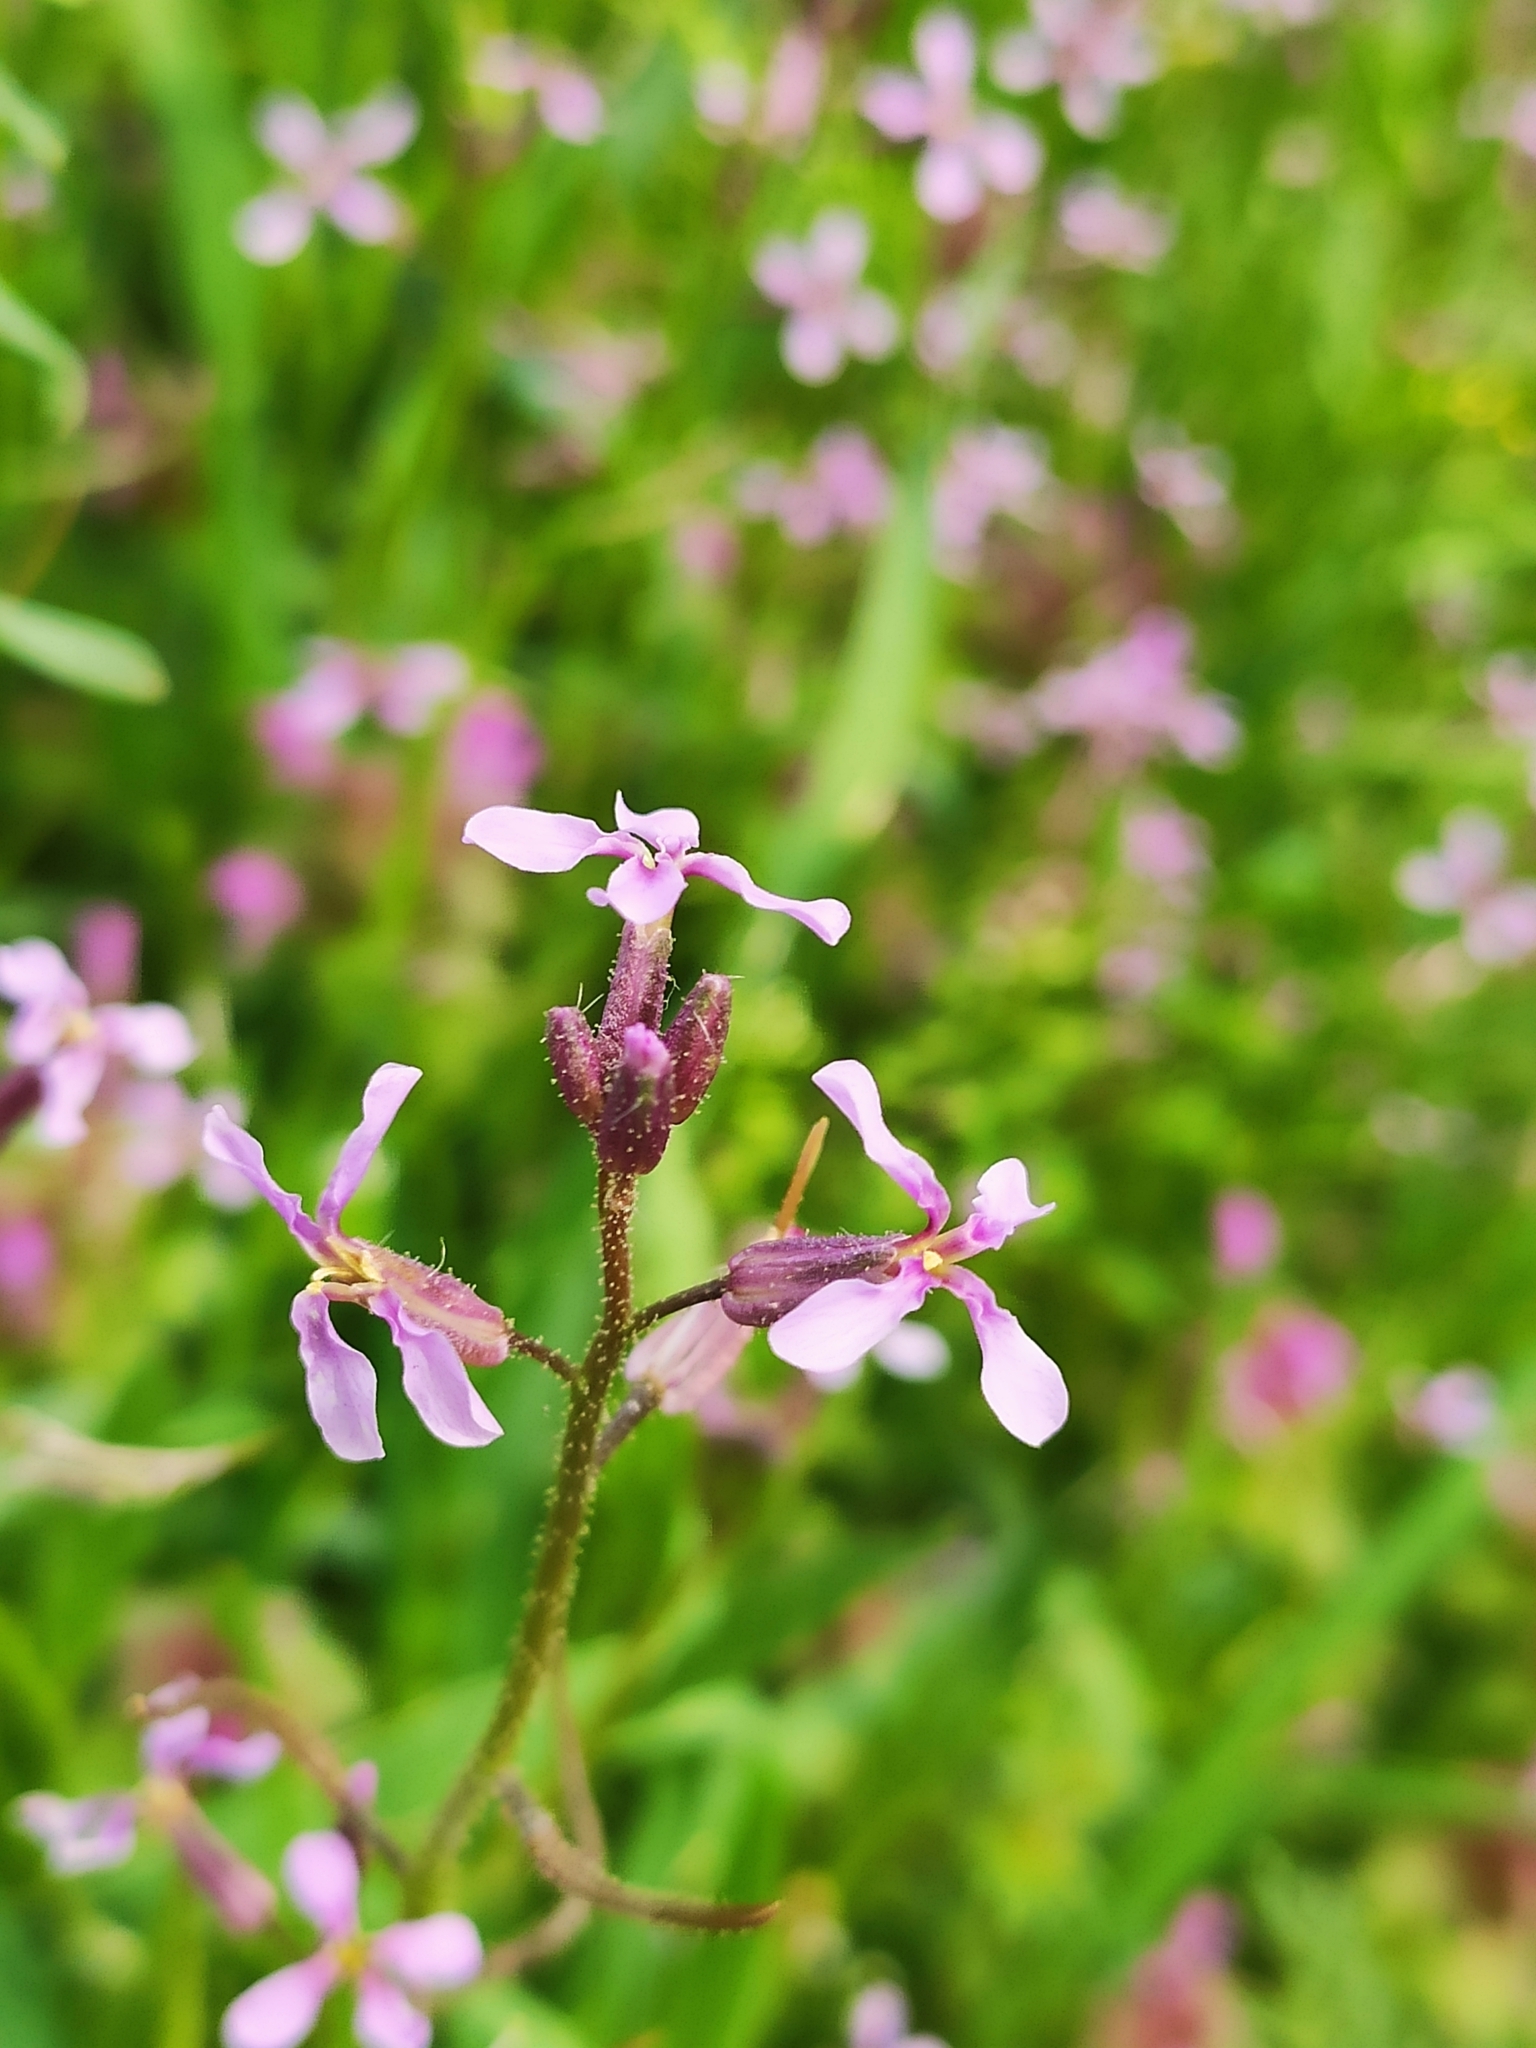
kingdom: Plantae
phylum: Tracheophyta
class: Magnoliopsida
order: Brassicales
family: Brassicaceae
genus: Chorispora
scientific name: Chorispora tenella
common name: Crossflower
